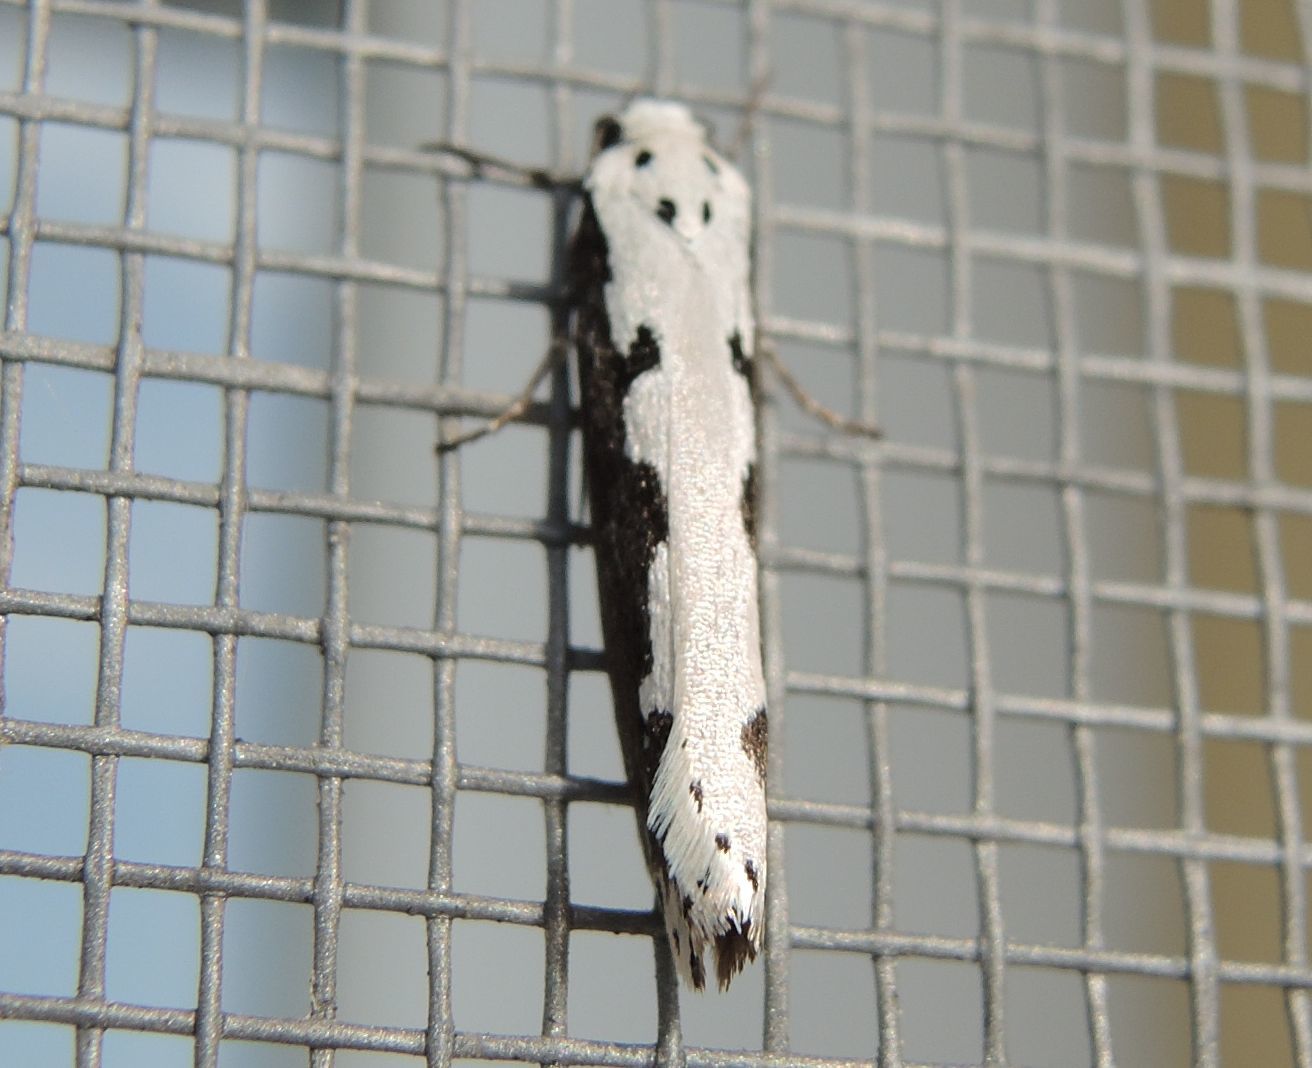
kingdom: Animalia
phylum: Arthropoda
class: Insecta
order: Lepidoptera
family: Ethmiidae
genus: Ethmia
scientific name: Ethmia bipunctella
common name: Bordered ermel
